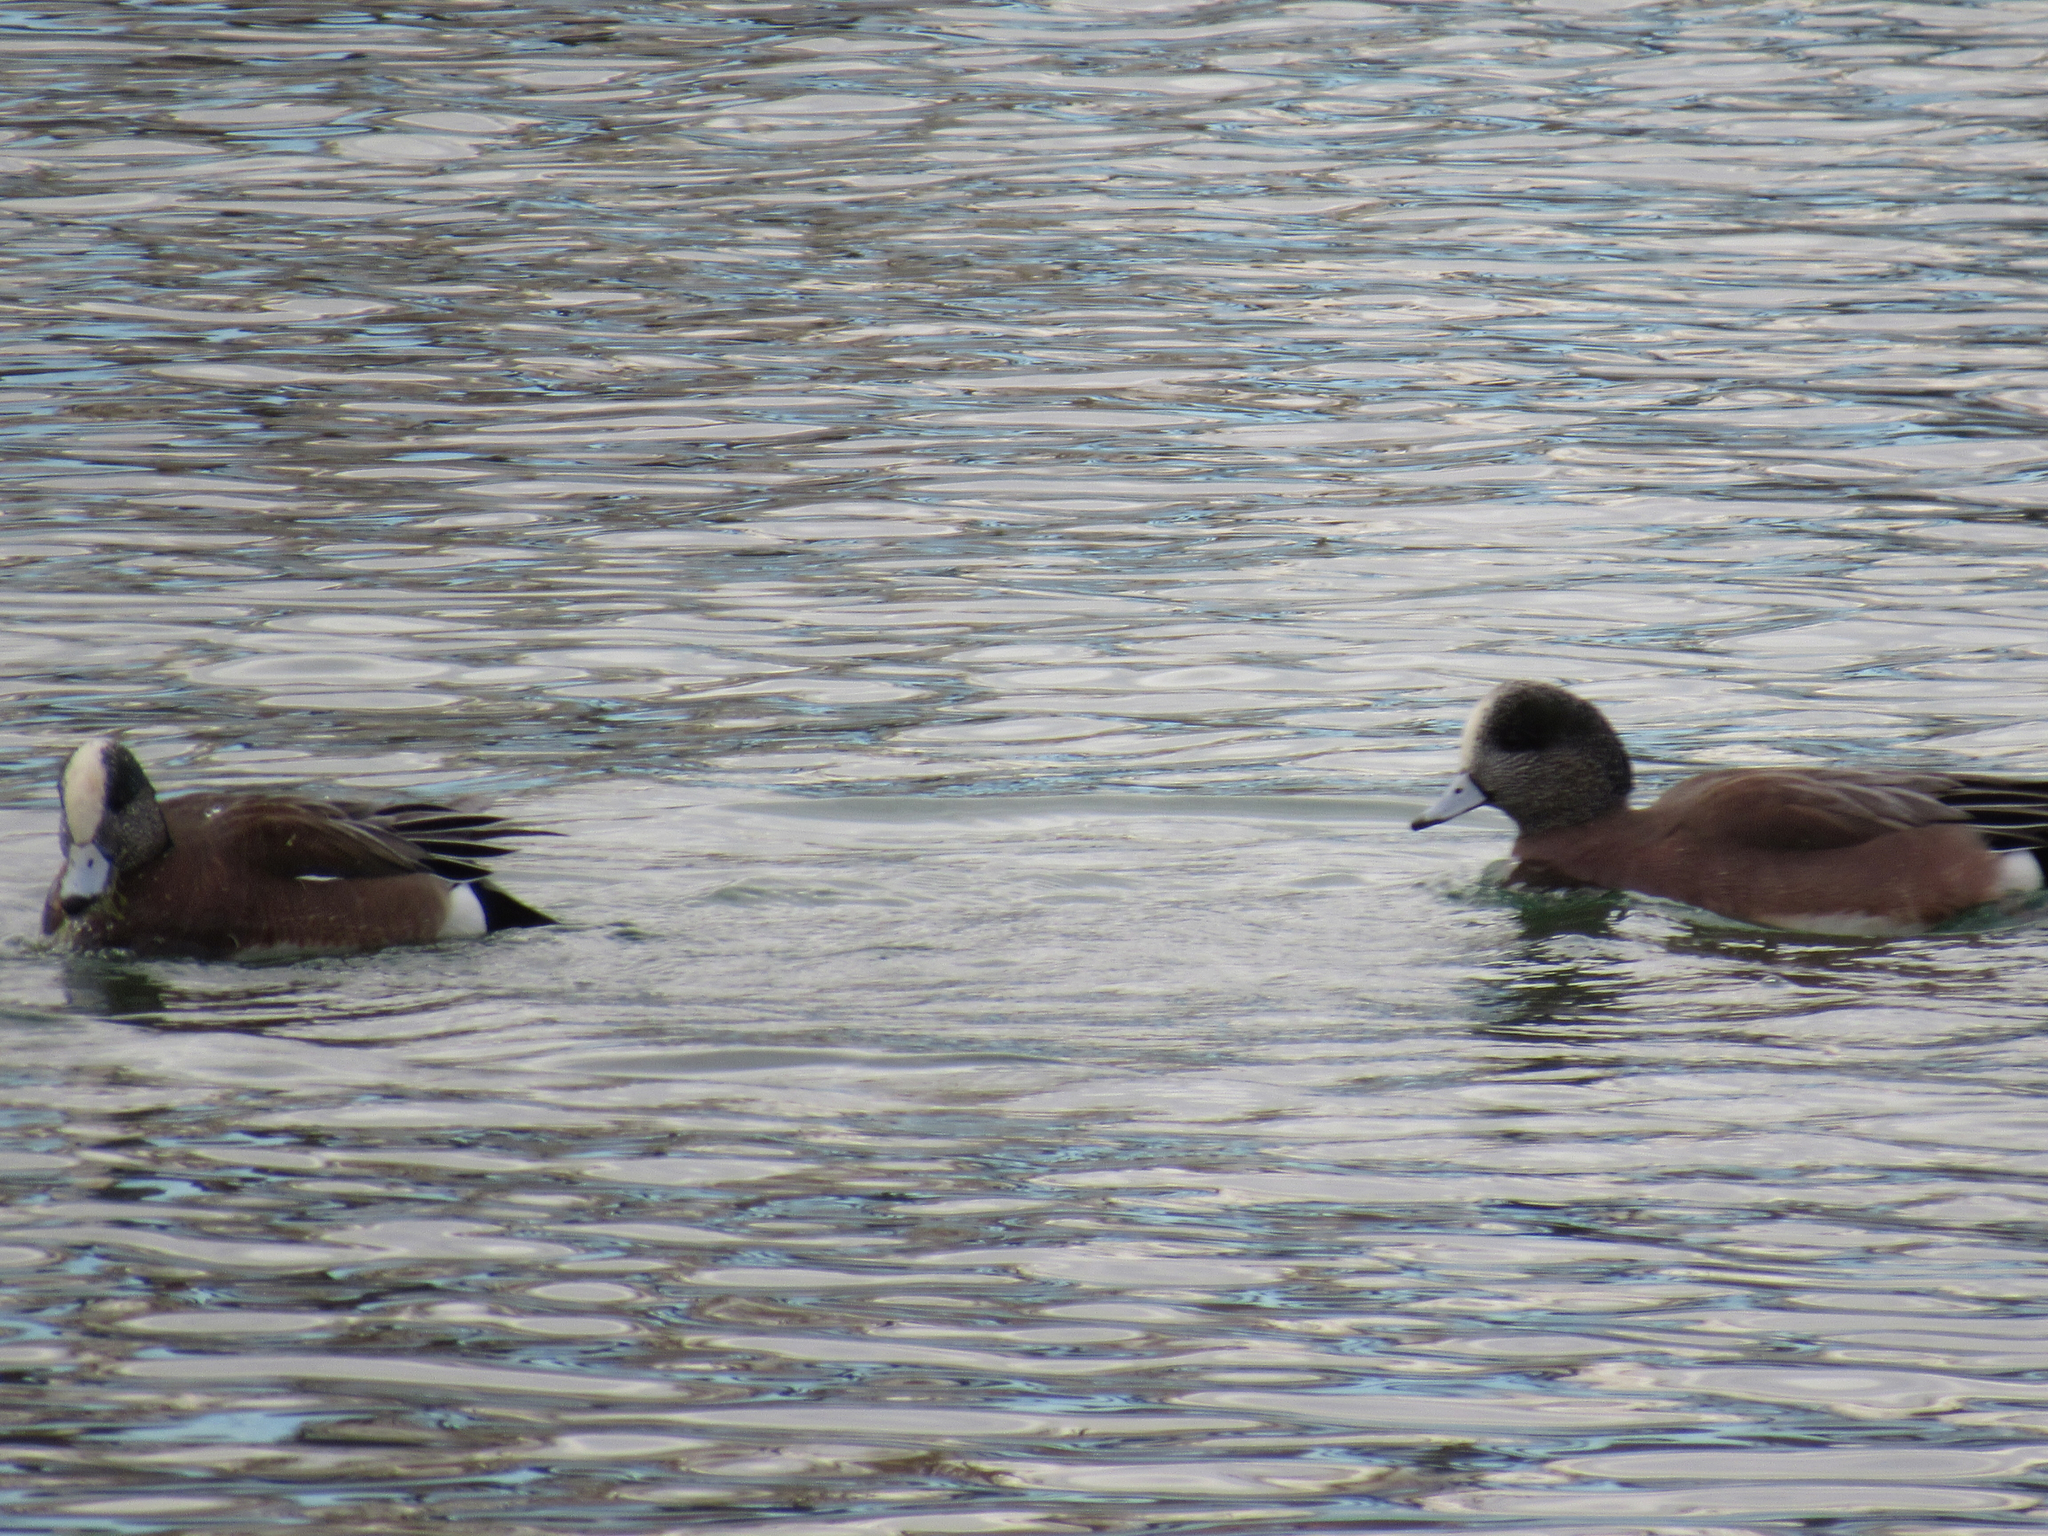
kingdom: Animalia
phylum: Chordata
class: Aves
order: Anseriformes
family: Anatidae
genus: Mareca
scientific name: Mareca americana
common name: American wigeon
